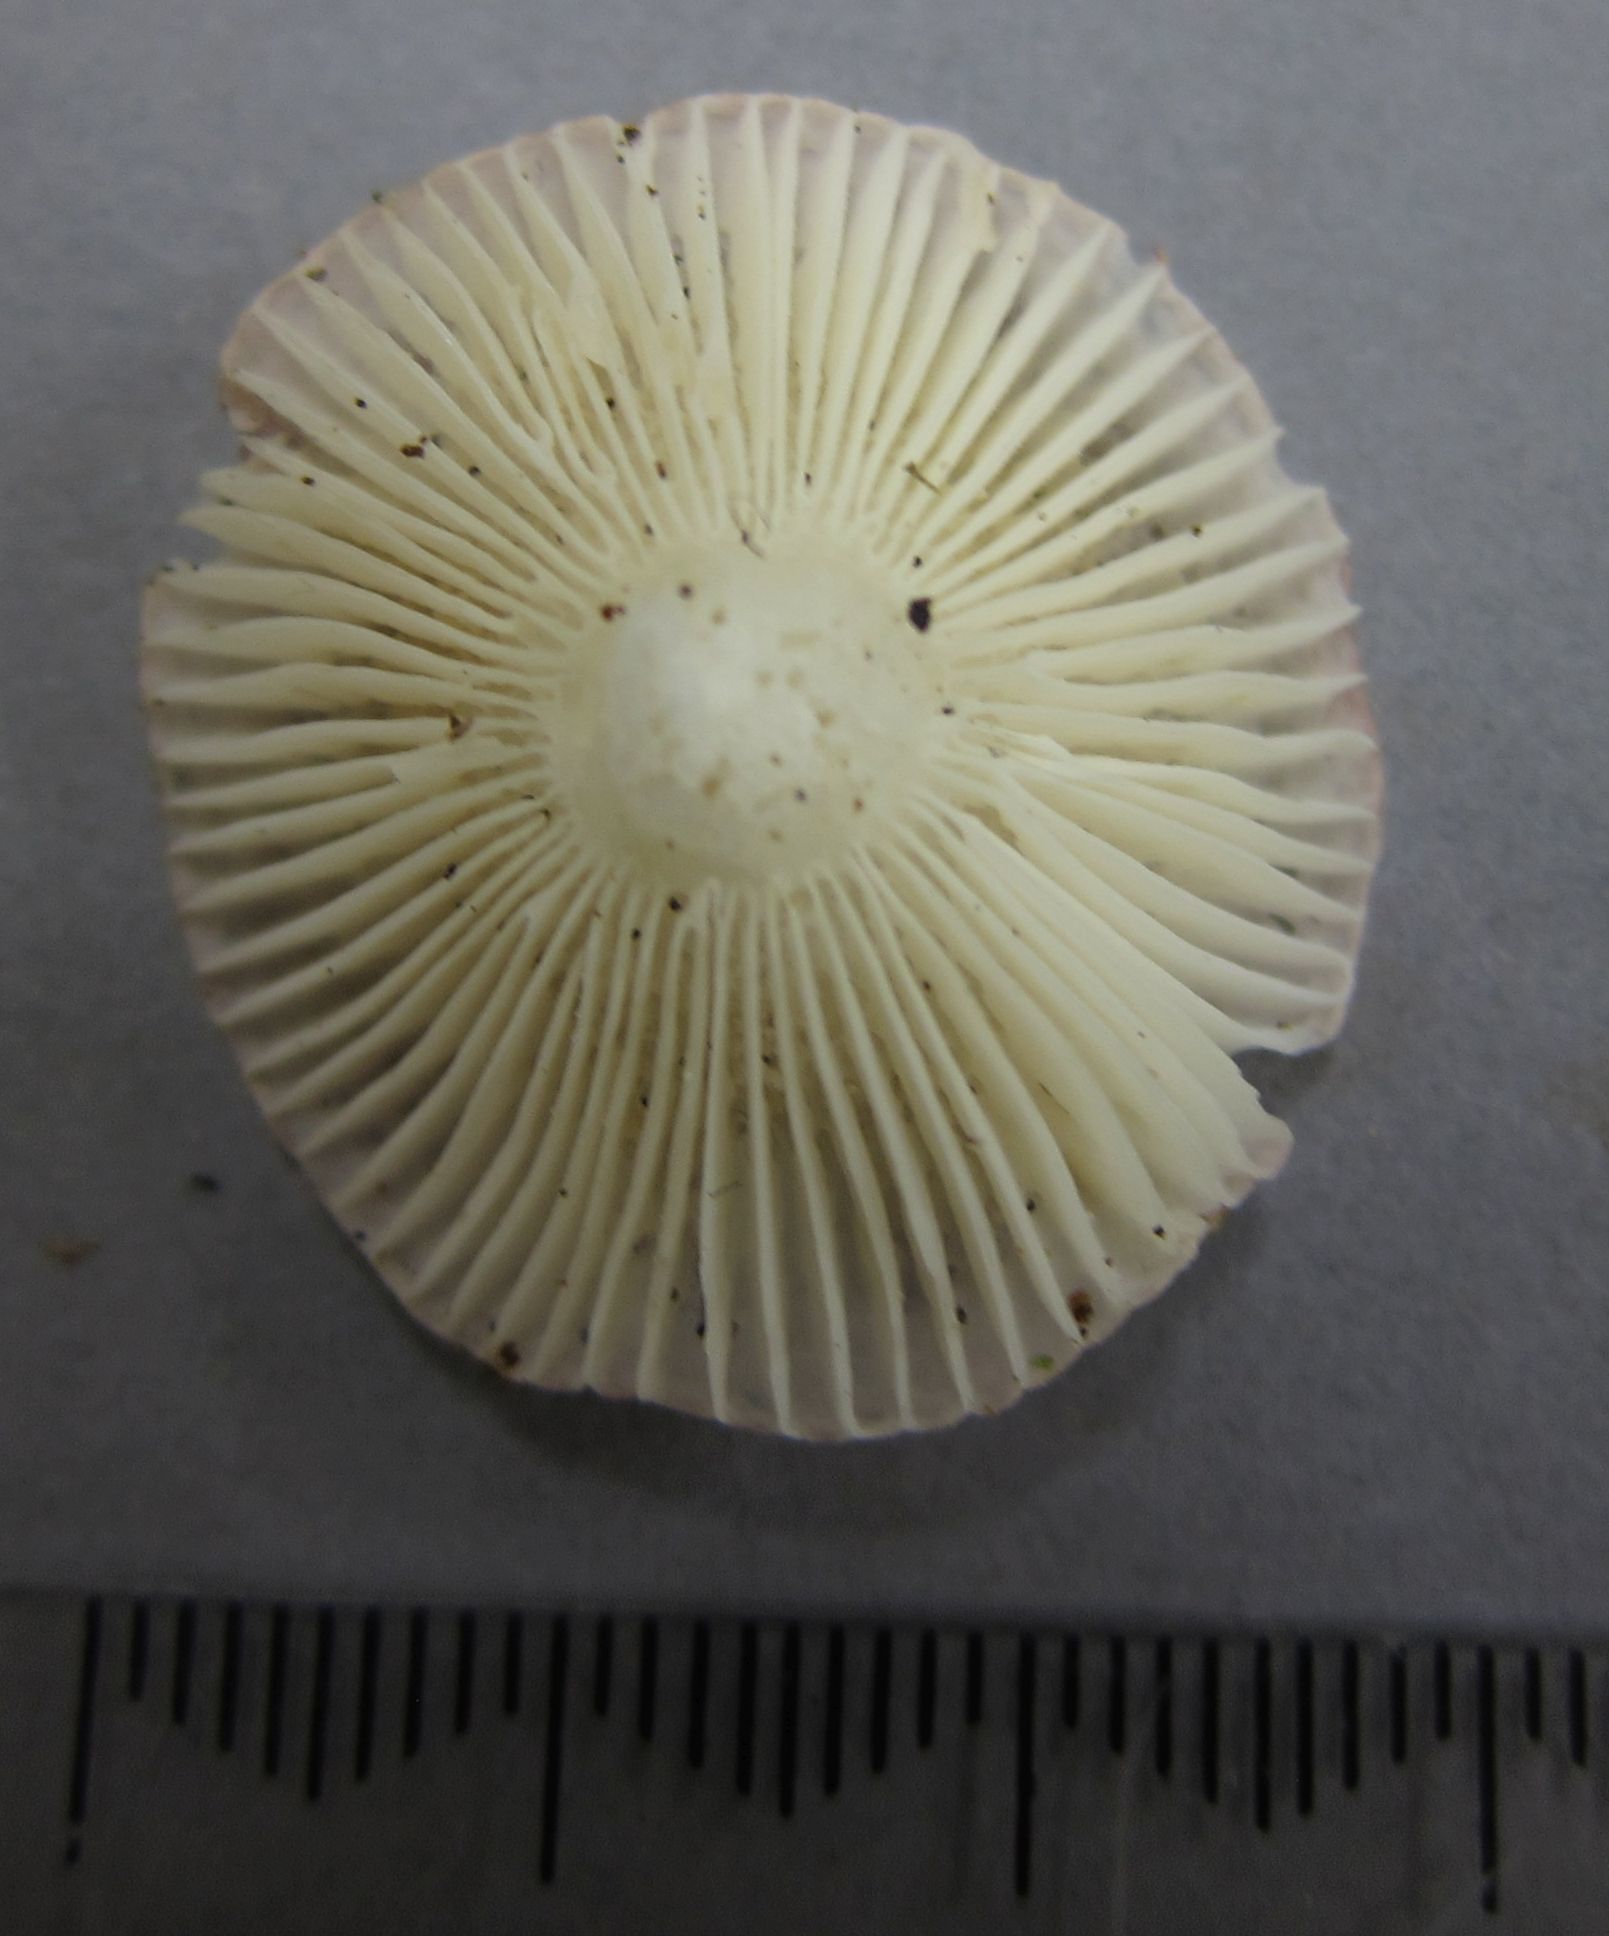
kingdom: Fungi
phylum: Basidiomycota
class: Agaricomycetes
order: Russulales
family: Russulaceae
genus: Russula
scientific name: Russula roseopileata
